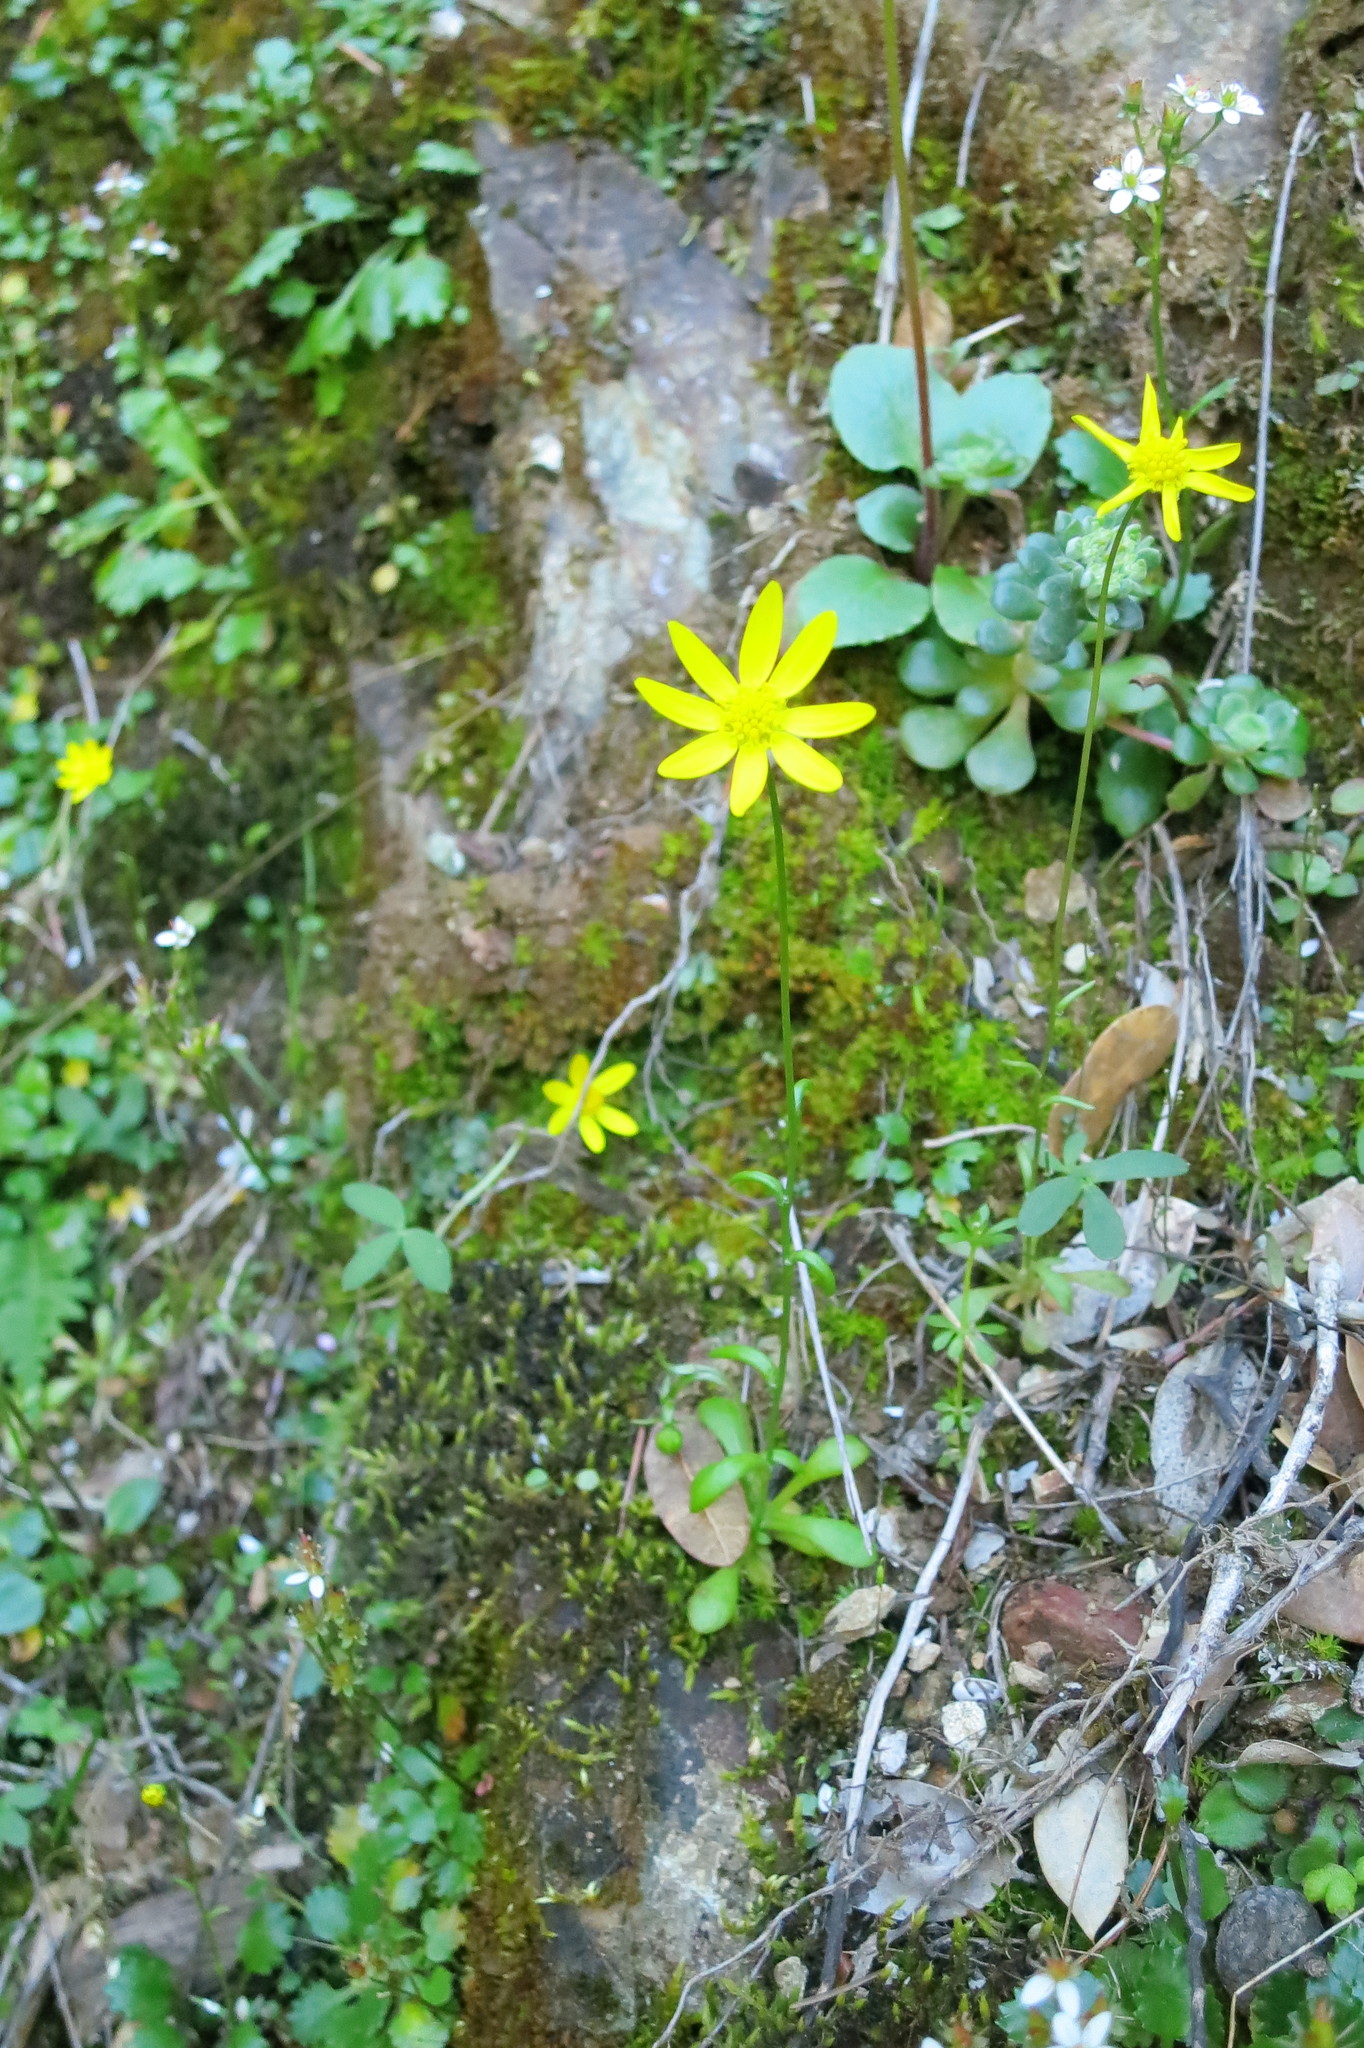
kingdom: Plantae
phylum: Tracheophyta
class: Magnoliopsida
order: Asterales
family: Asteraceae
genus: Crocidium
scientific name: Crocidium multicaule
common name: Common spring gold
